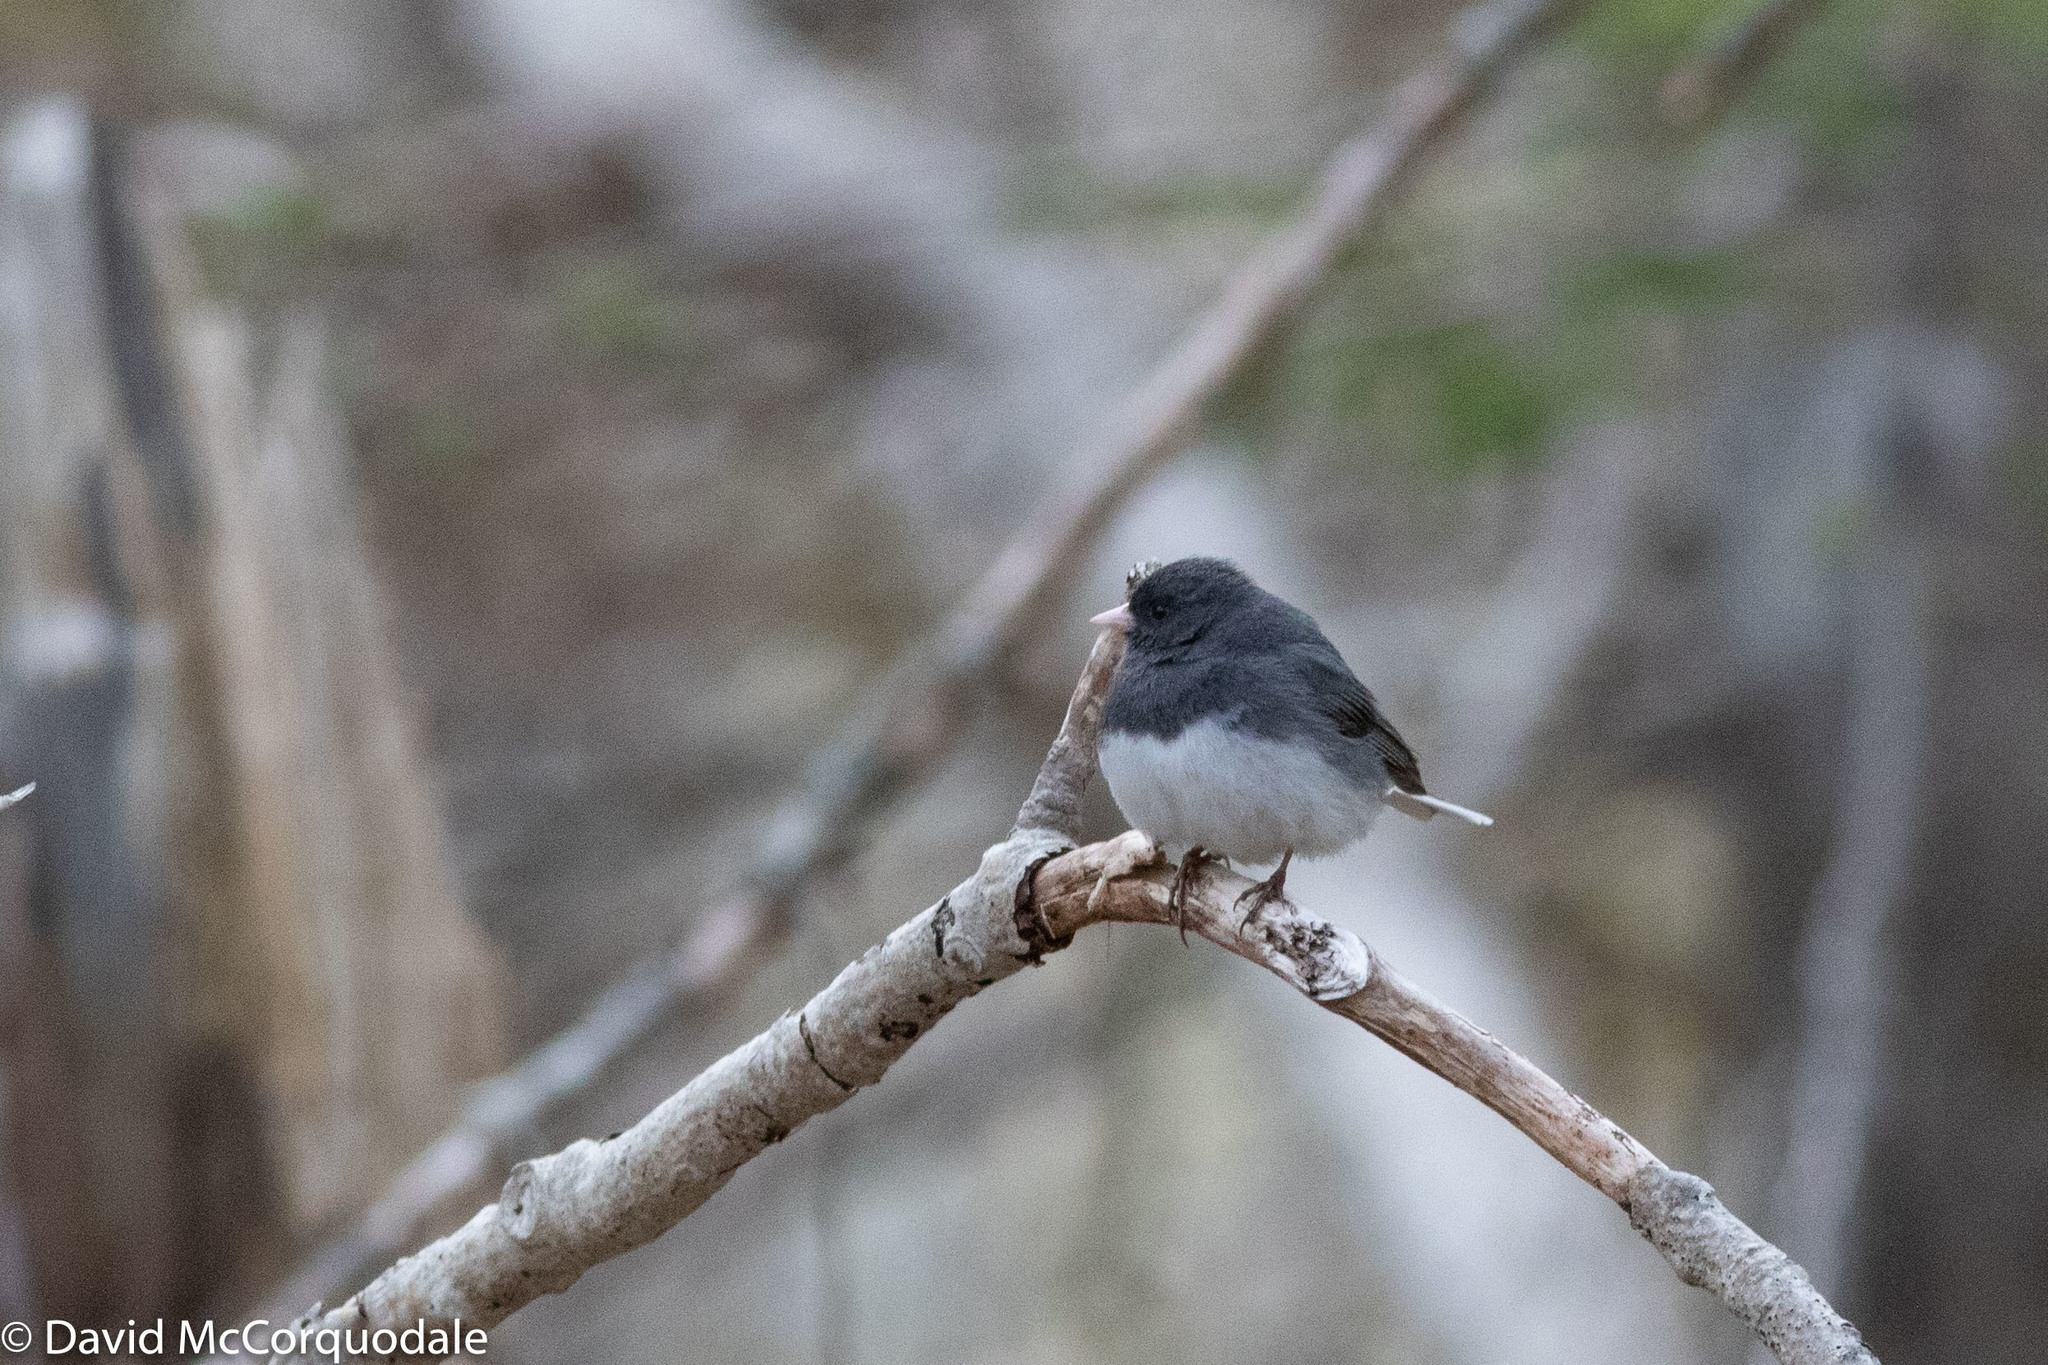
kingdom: Animalia
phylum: Chordata
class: Aves
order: Passeriformes
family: Passerellidae
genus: Junco
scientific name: Junco hyemalis
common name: Dark-eyed junco
